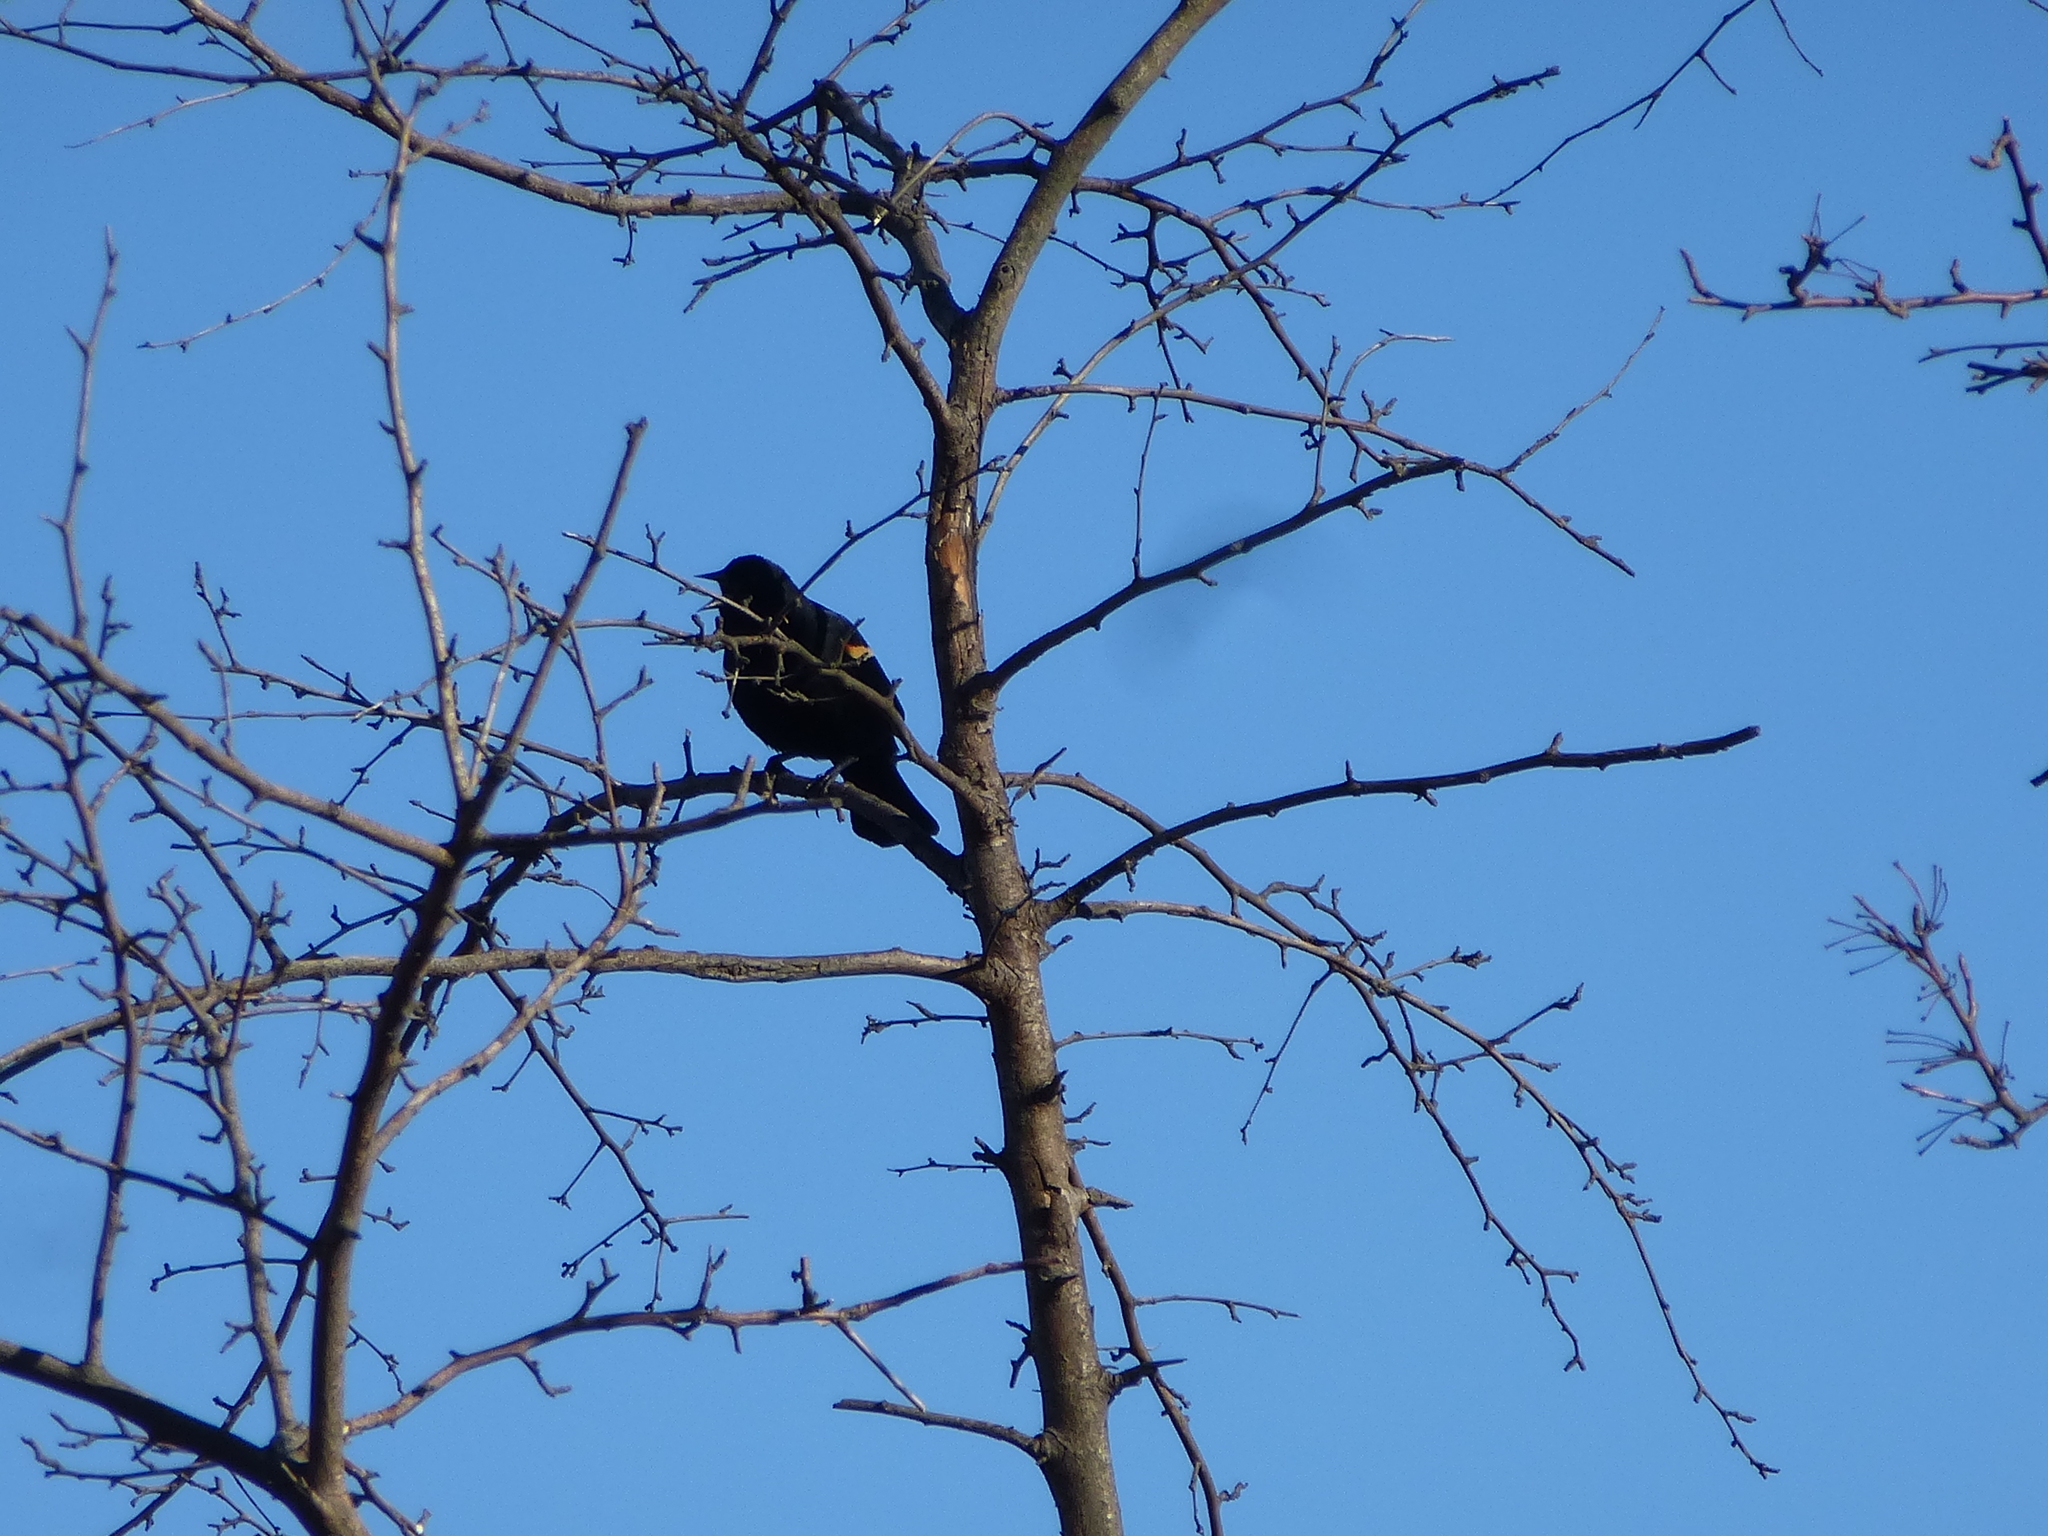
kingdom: Animalia
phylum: Chordata
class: Aves
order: Passeriformes
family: Icteridae
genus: Agelaius
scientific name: Agelaius phoeniceus
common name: Red-winged blackbird
